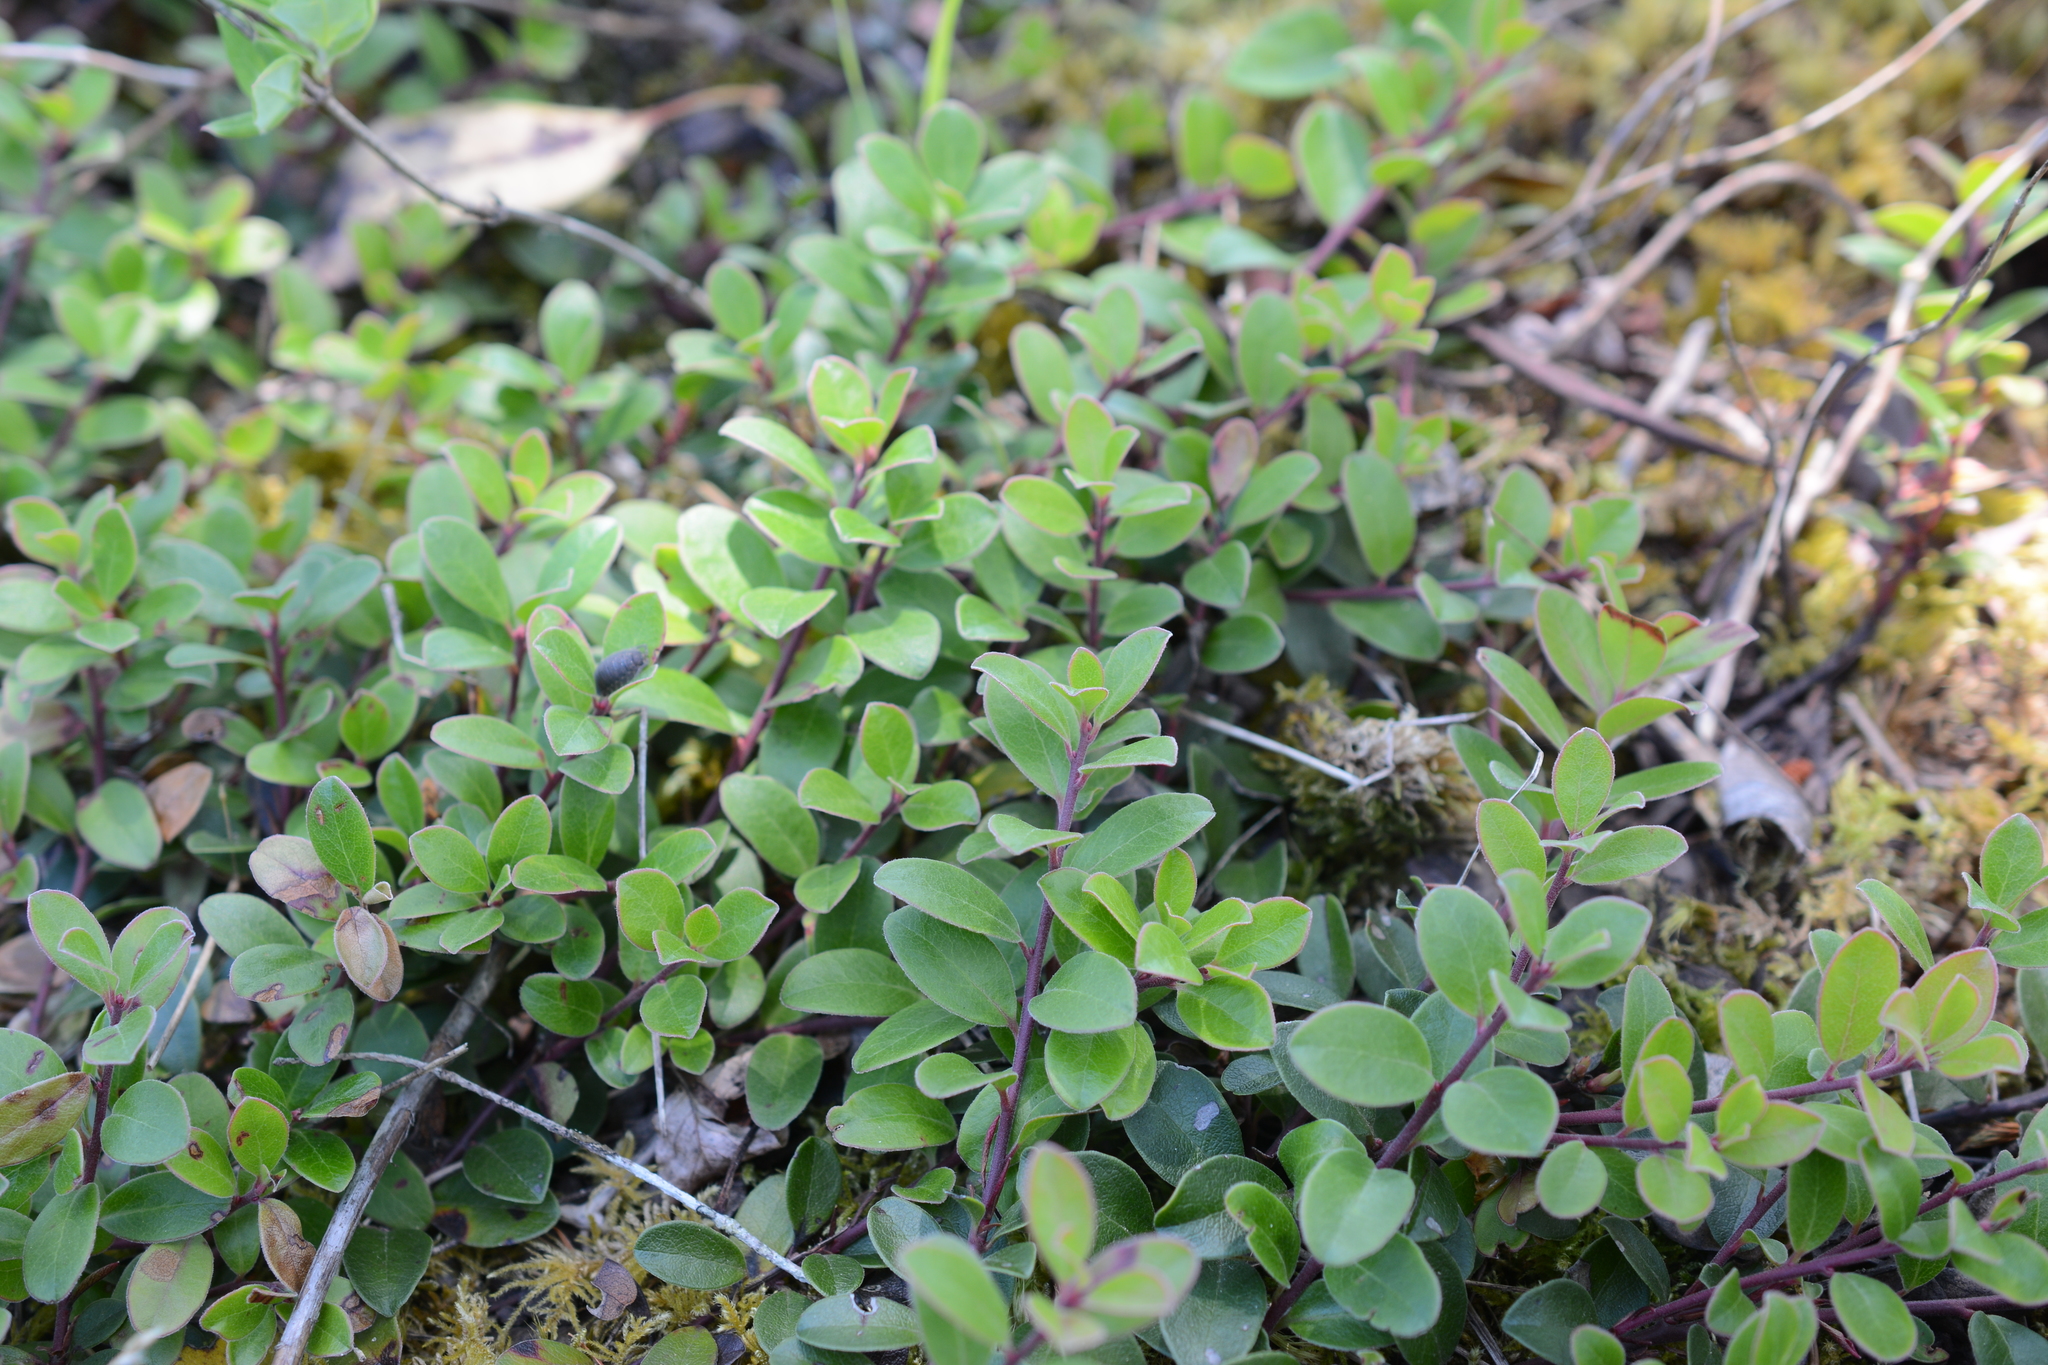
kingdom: Plantae
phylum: Tracheophyta
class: Magnoliopsida
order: Ericales
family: Ericaceae
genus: Arctostaphylos
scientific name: Arctostaphylos uva-ursi
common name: Bearberry
